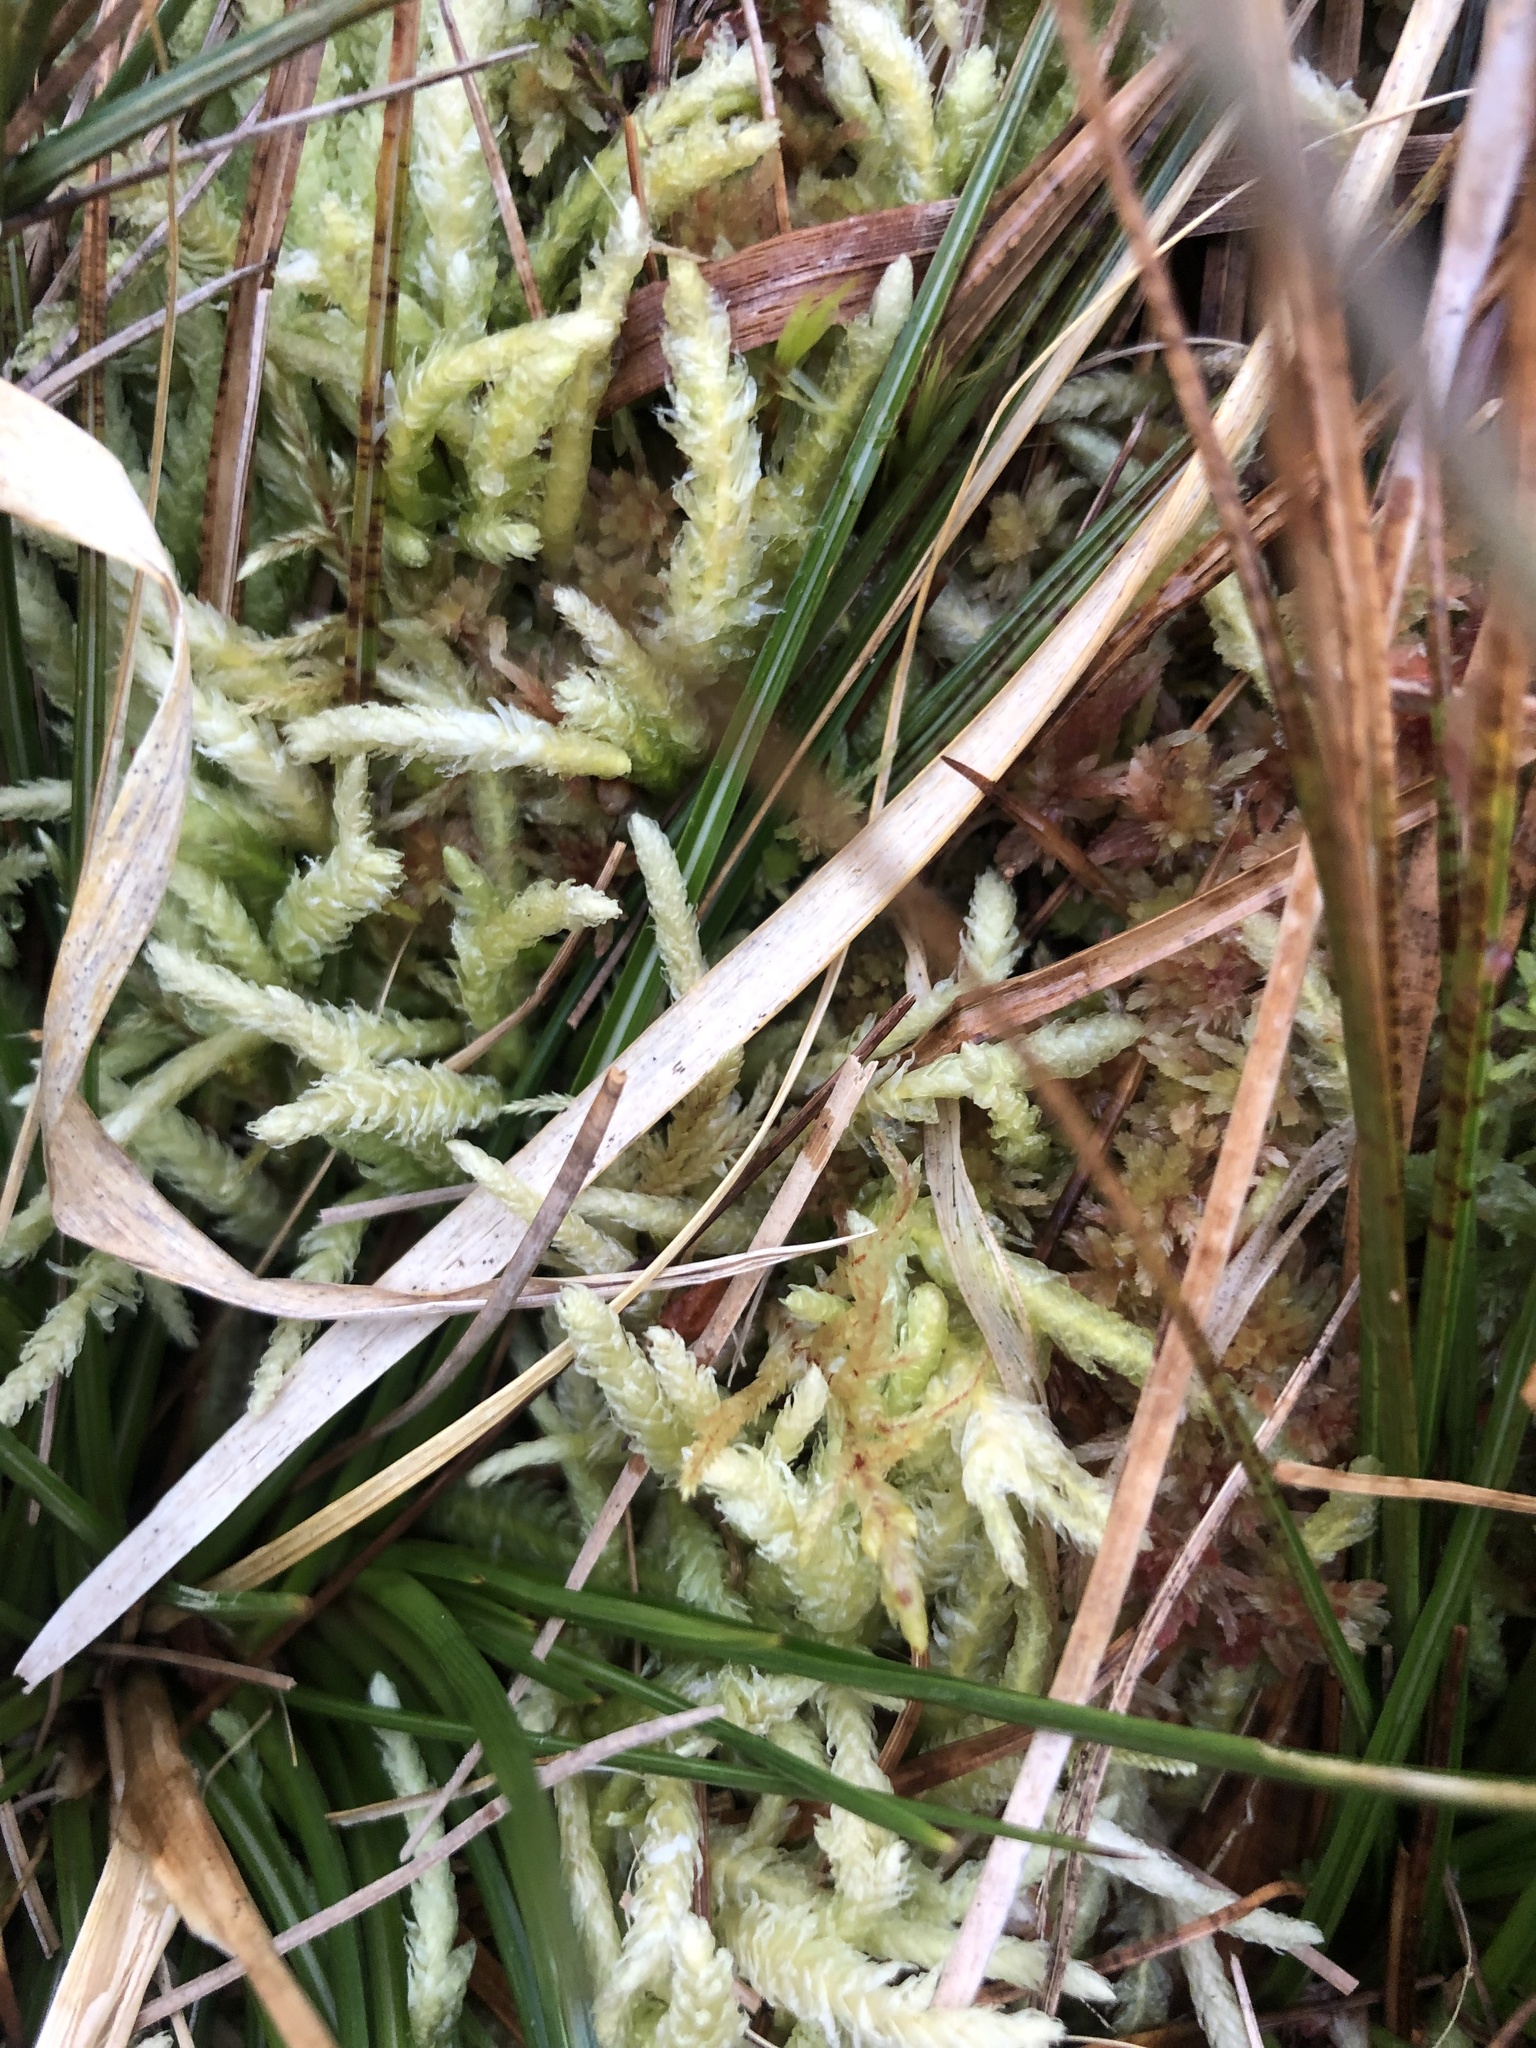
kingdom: Plantae
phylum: Bryophyta
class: Bryopsida
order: Hypnales
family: Plagiotheciaceae
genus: Plagiothecium
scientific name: Plagiothecium undulatum
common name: Waved silk-moss
